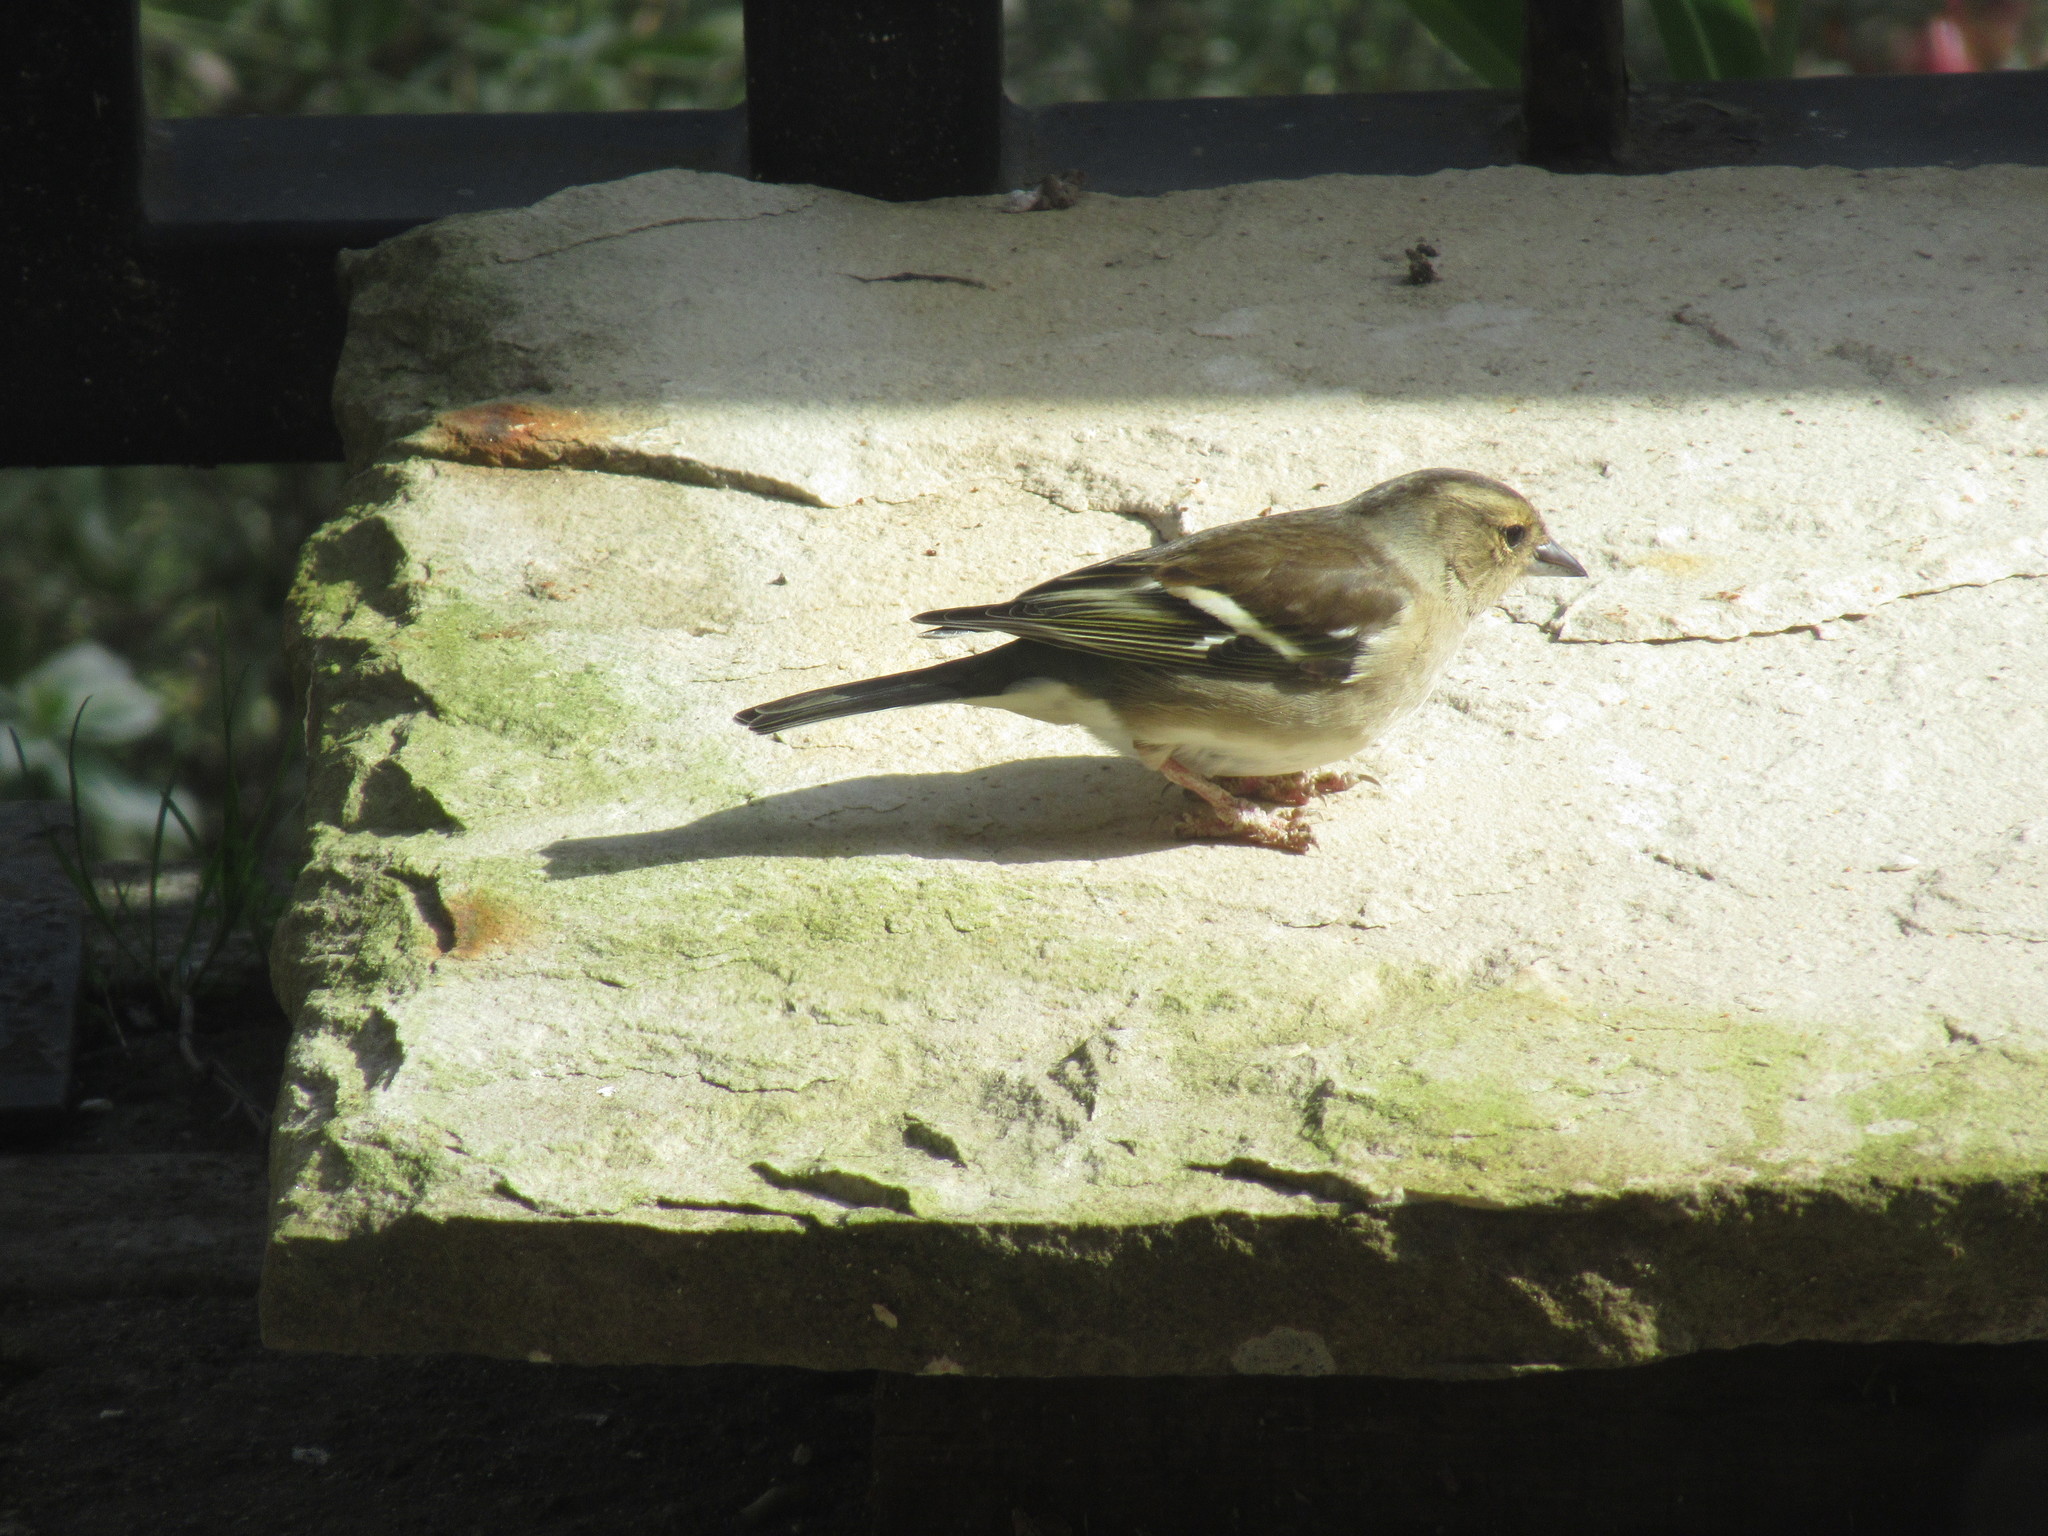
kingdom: Animalia
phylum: Chordata
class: Aves
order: Passeriformes
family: Fringillidae
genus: Fringilla
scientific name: Fringilla coelebs
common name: Common chaffinch
